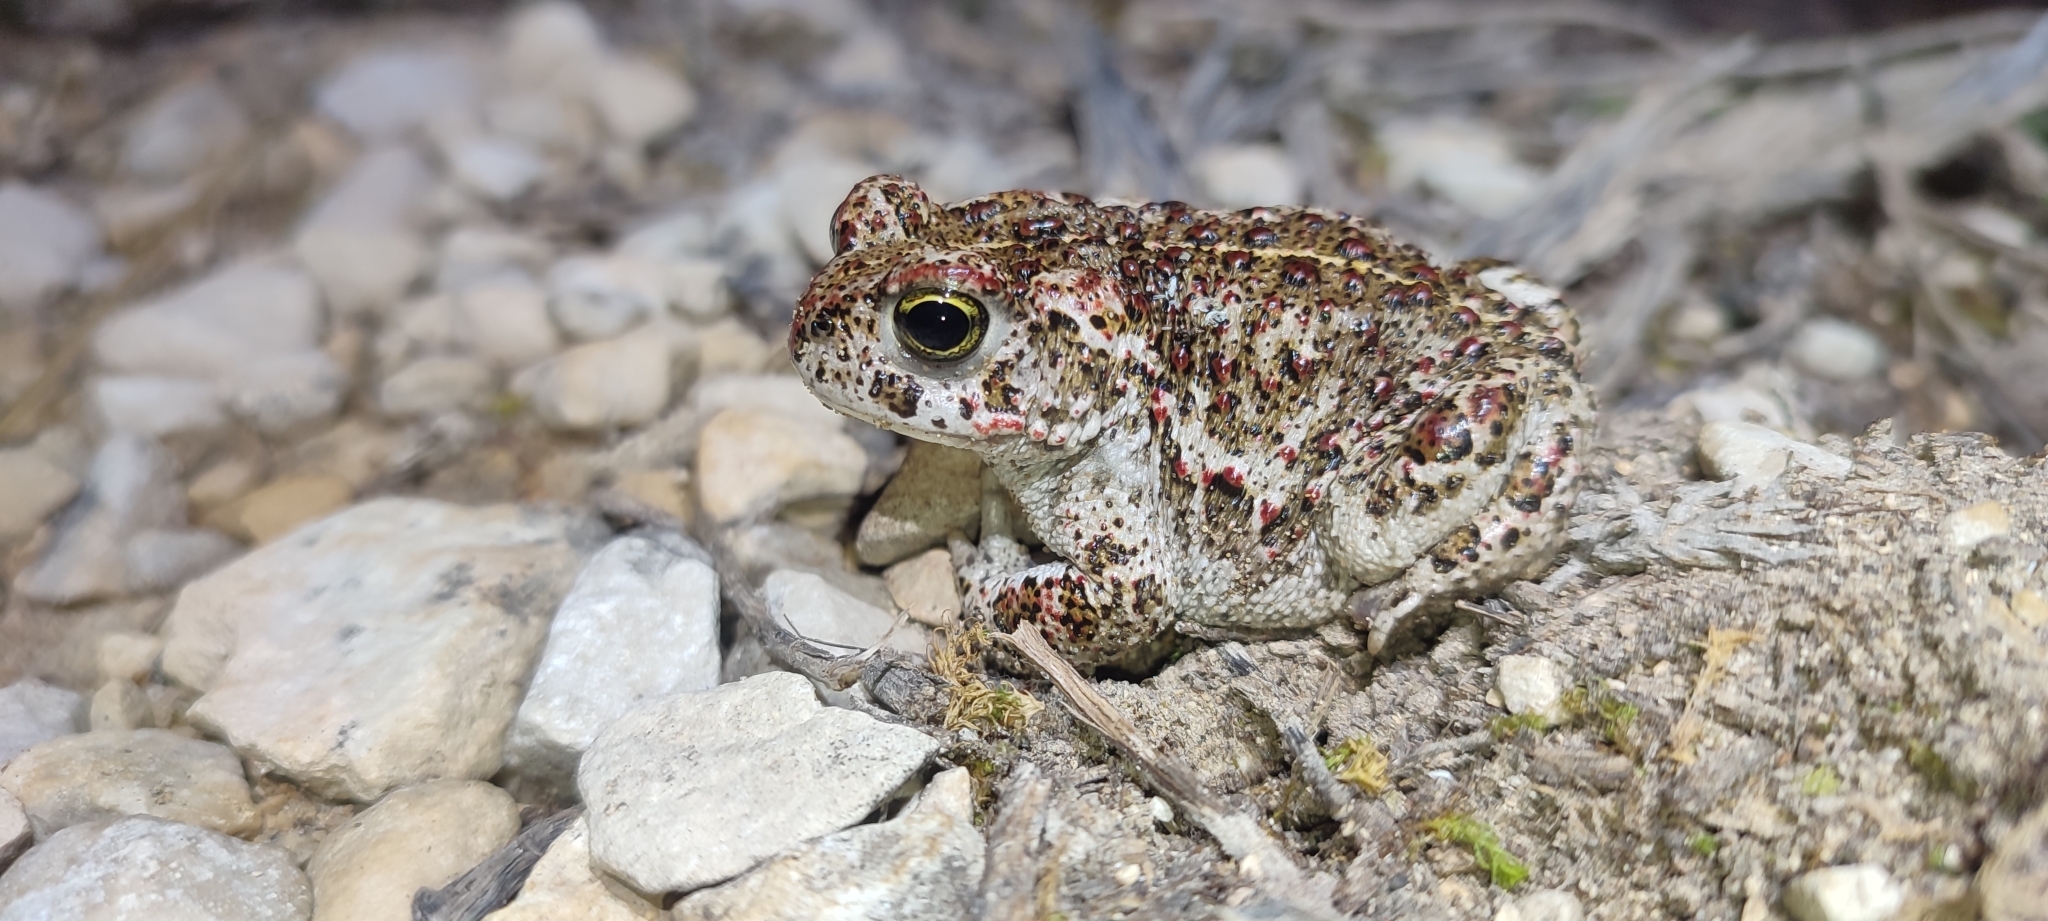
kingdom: Animalia
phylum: Chordata
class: Amphibia
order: Anura
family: Bufonidae
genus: Epidalea
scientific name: Epidalea calamita
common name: Natterjack toad
